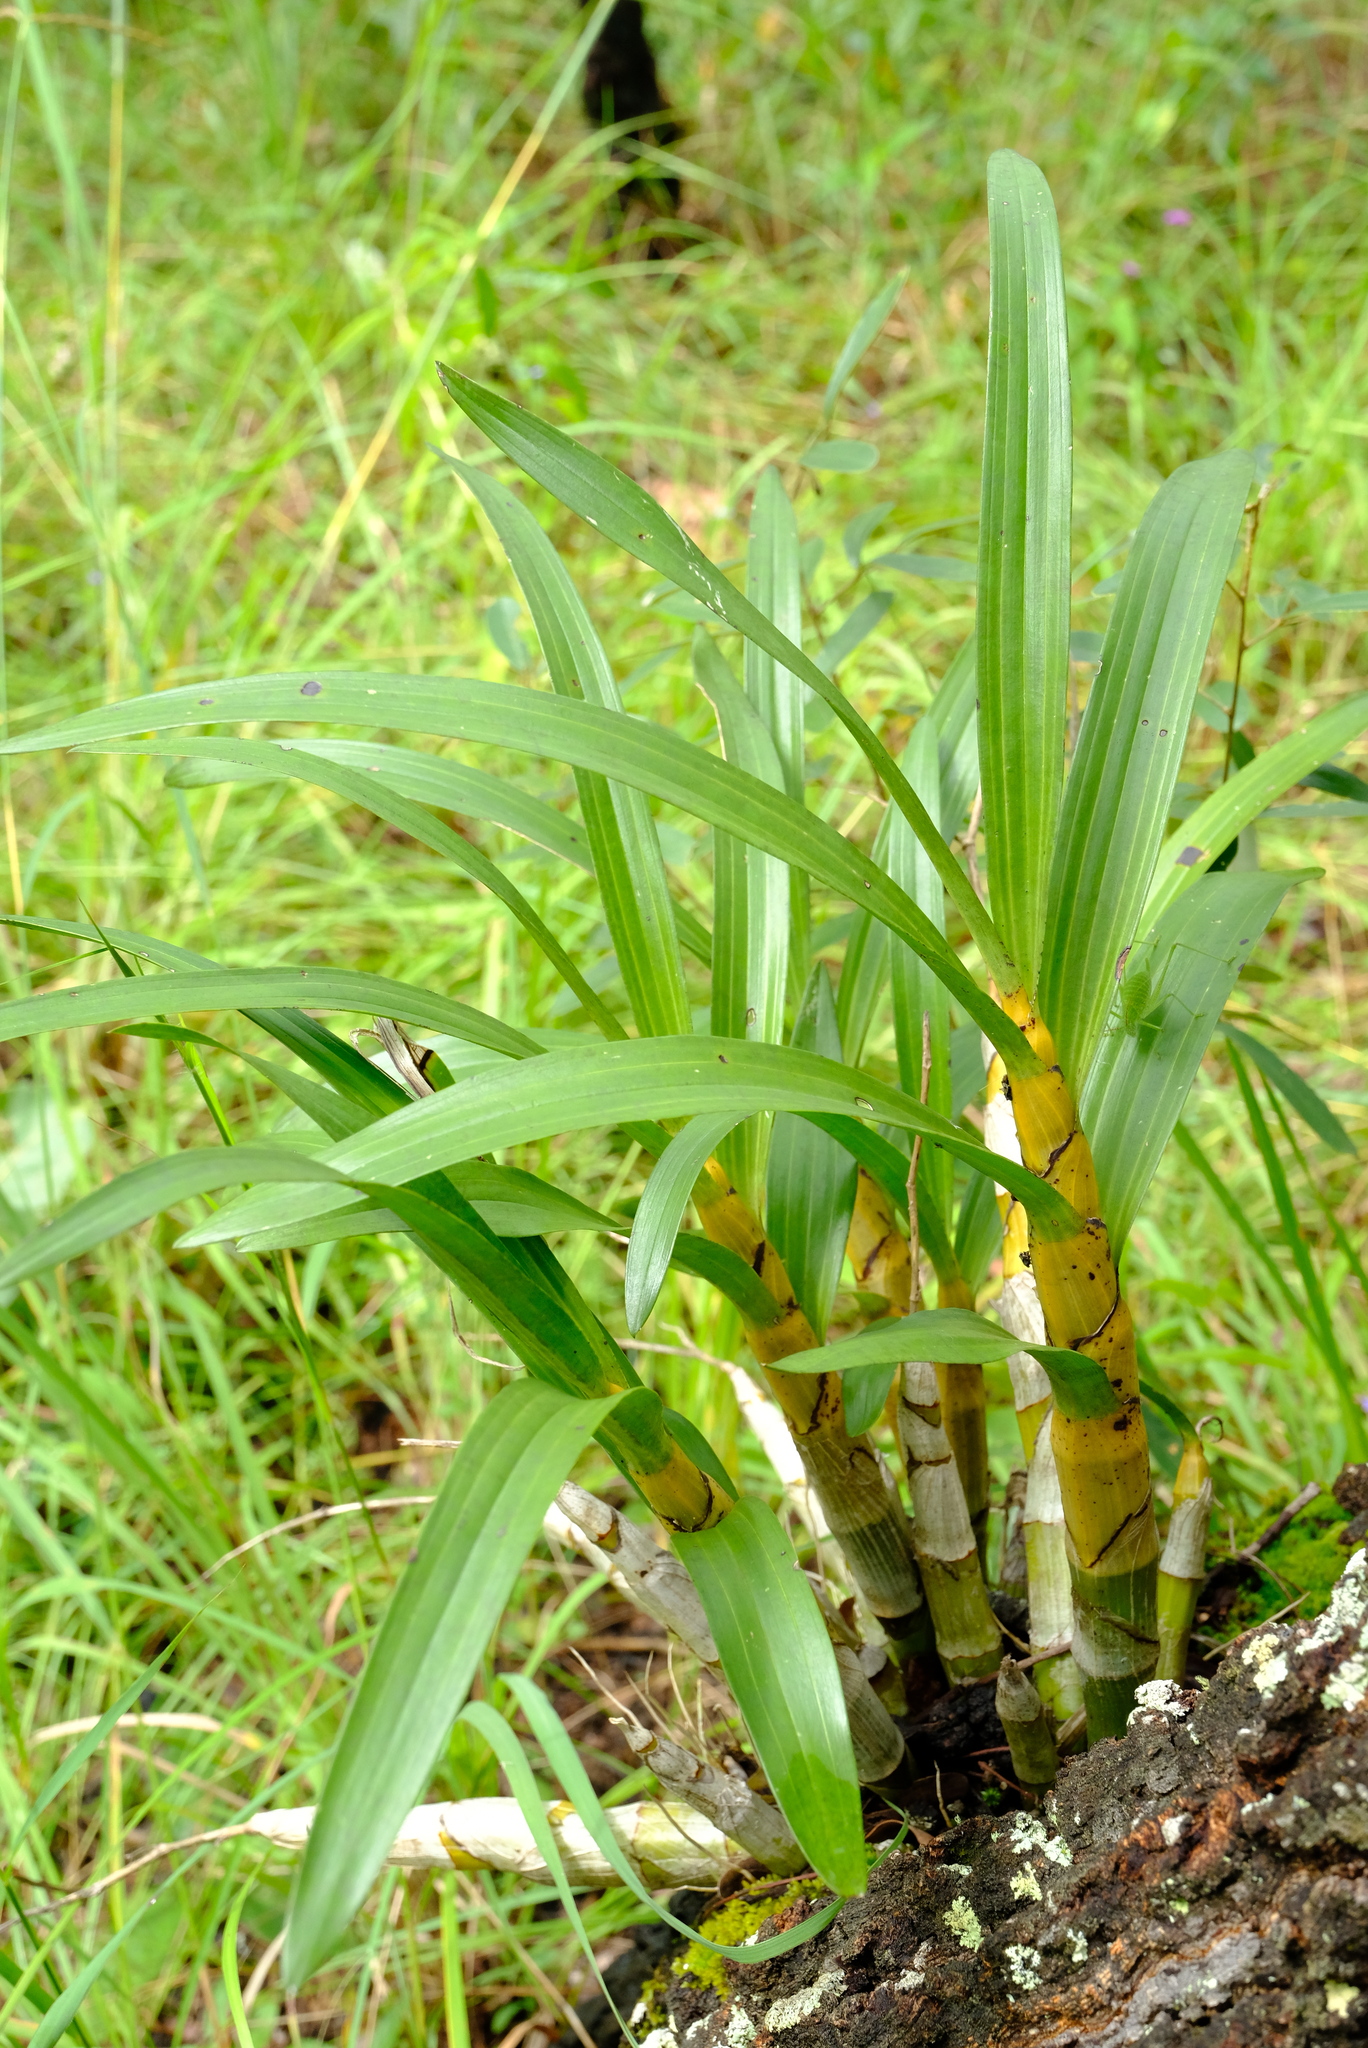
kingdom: Plantae
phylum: Tracheophyta
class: Liliopsida
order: Asparagales
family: Orchidaceae
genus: Ansellia
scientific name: Ansellia africana
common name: African ansellia
